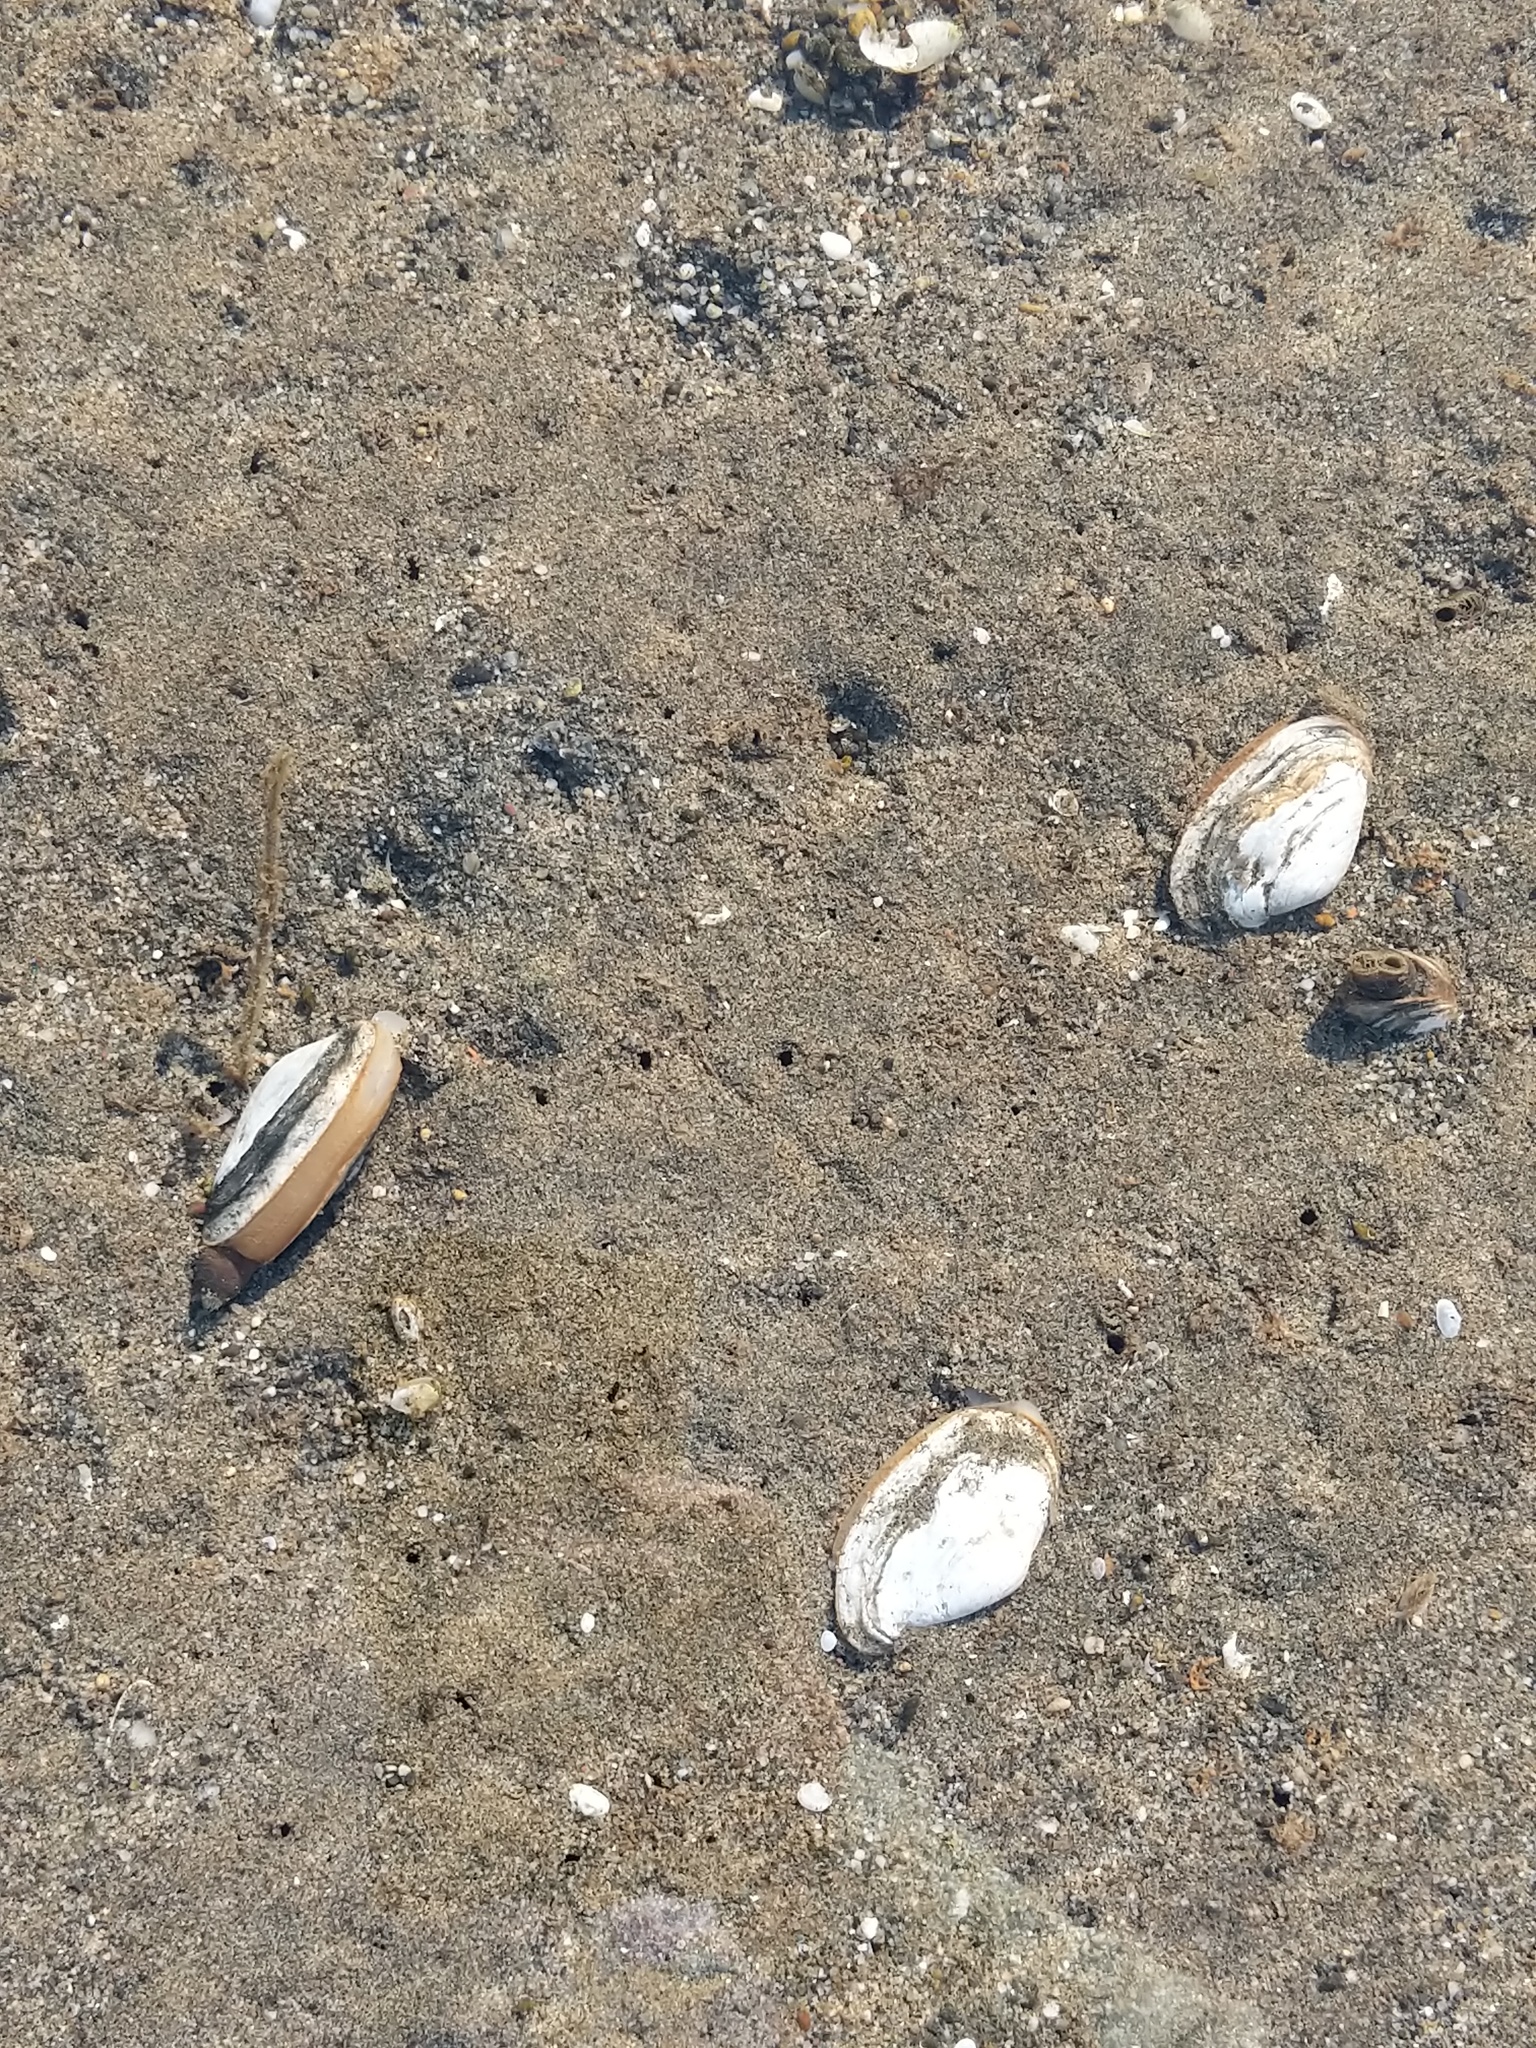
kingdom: Animalia
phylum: Mollusca
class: Bivalvia
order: Myida
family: Myidae
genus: Mya
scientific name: Mya arenaria
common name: Soft-shelled clam
